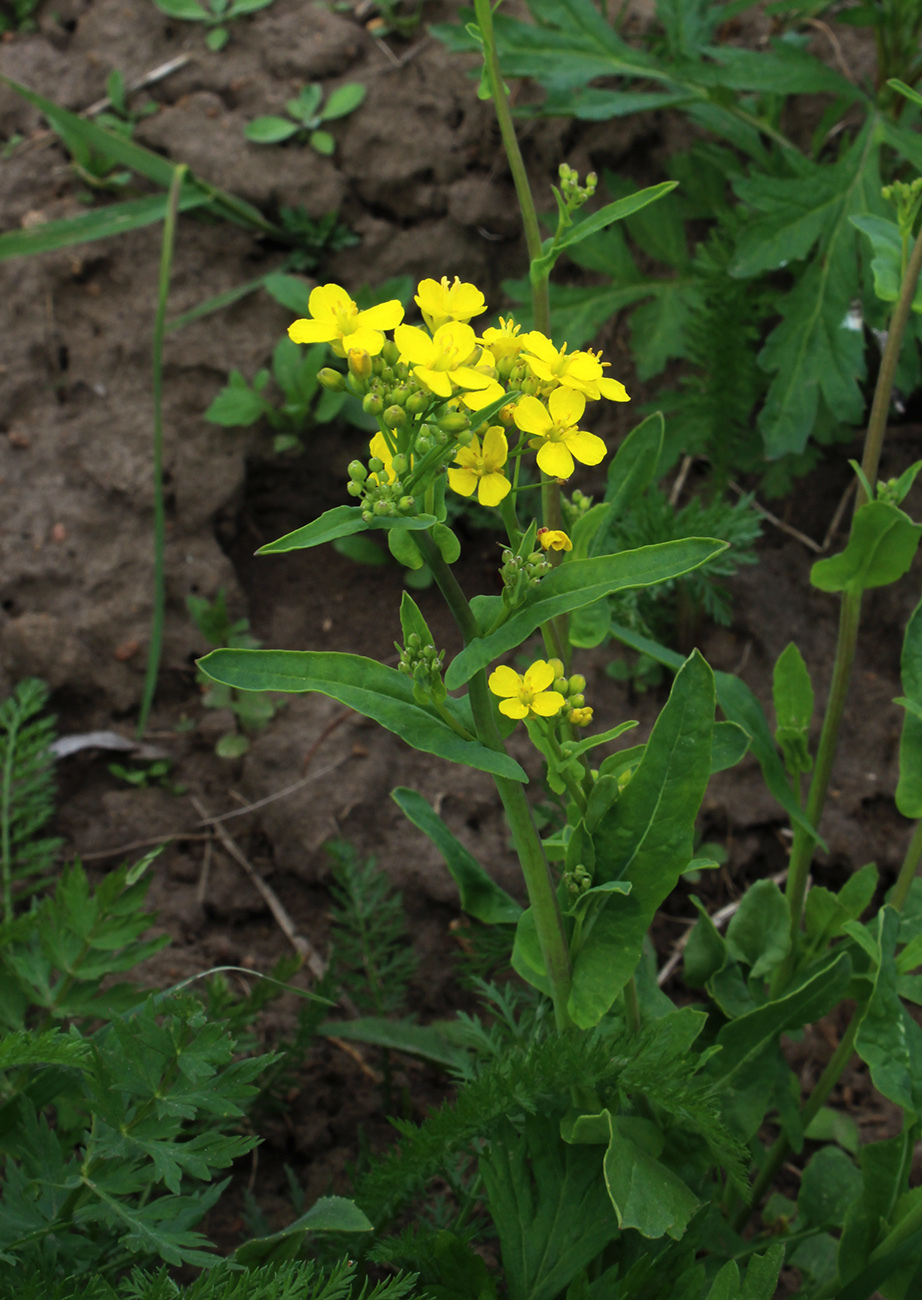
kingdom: Plantae
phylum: Tracheophyta
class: Magnoliopsida
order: Brassicales
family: Brassicaceae
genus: Brassica
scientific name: Brassica rapa
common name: Field mustard
